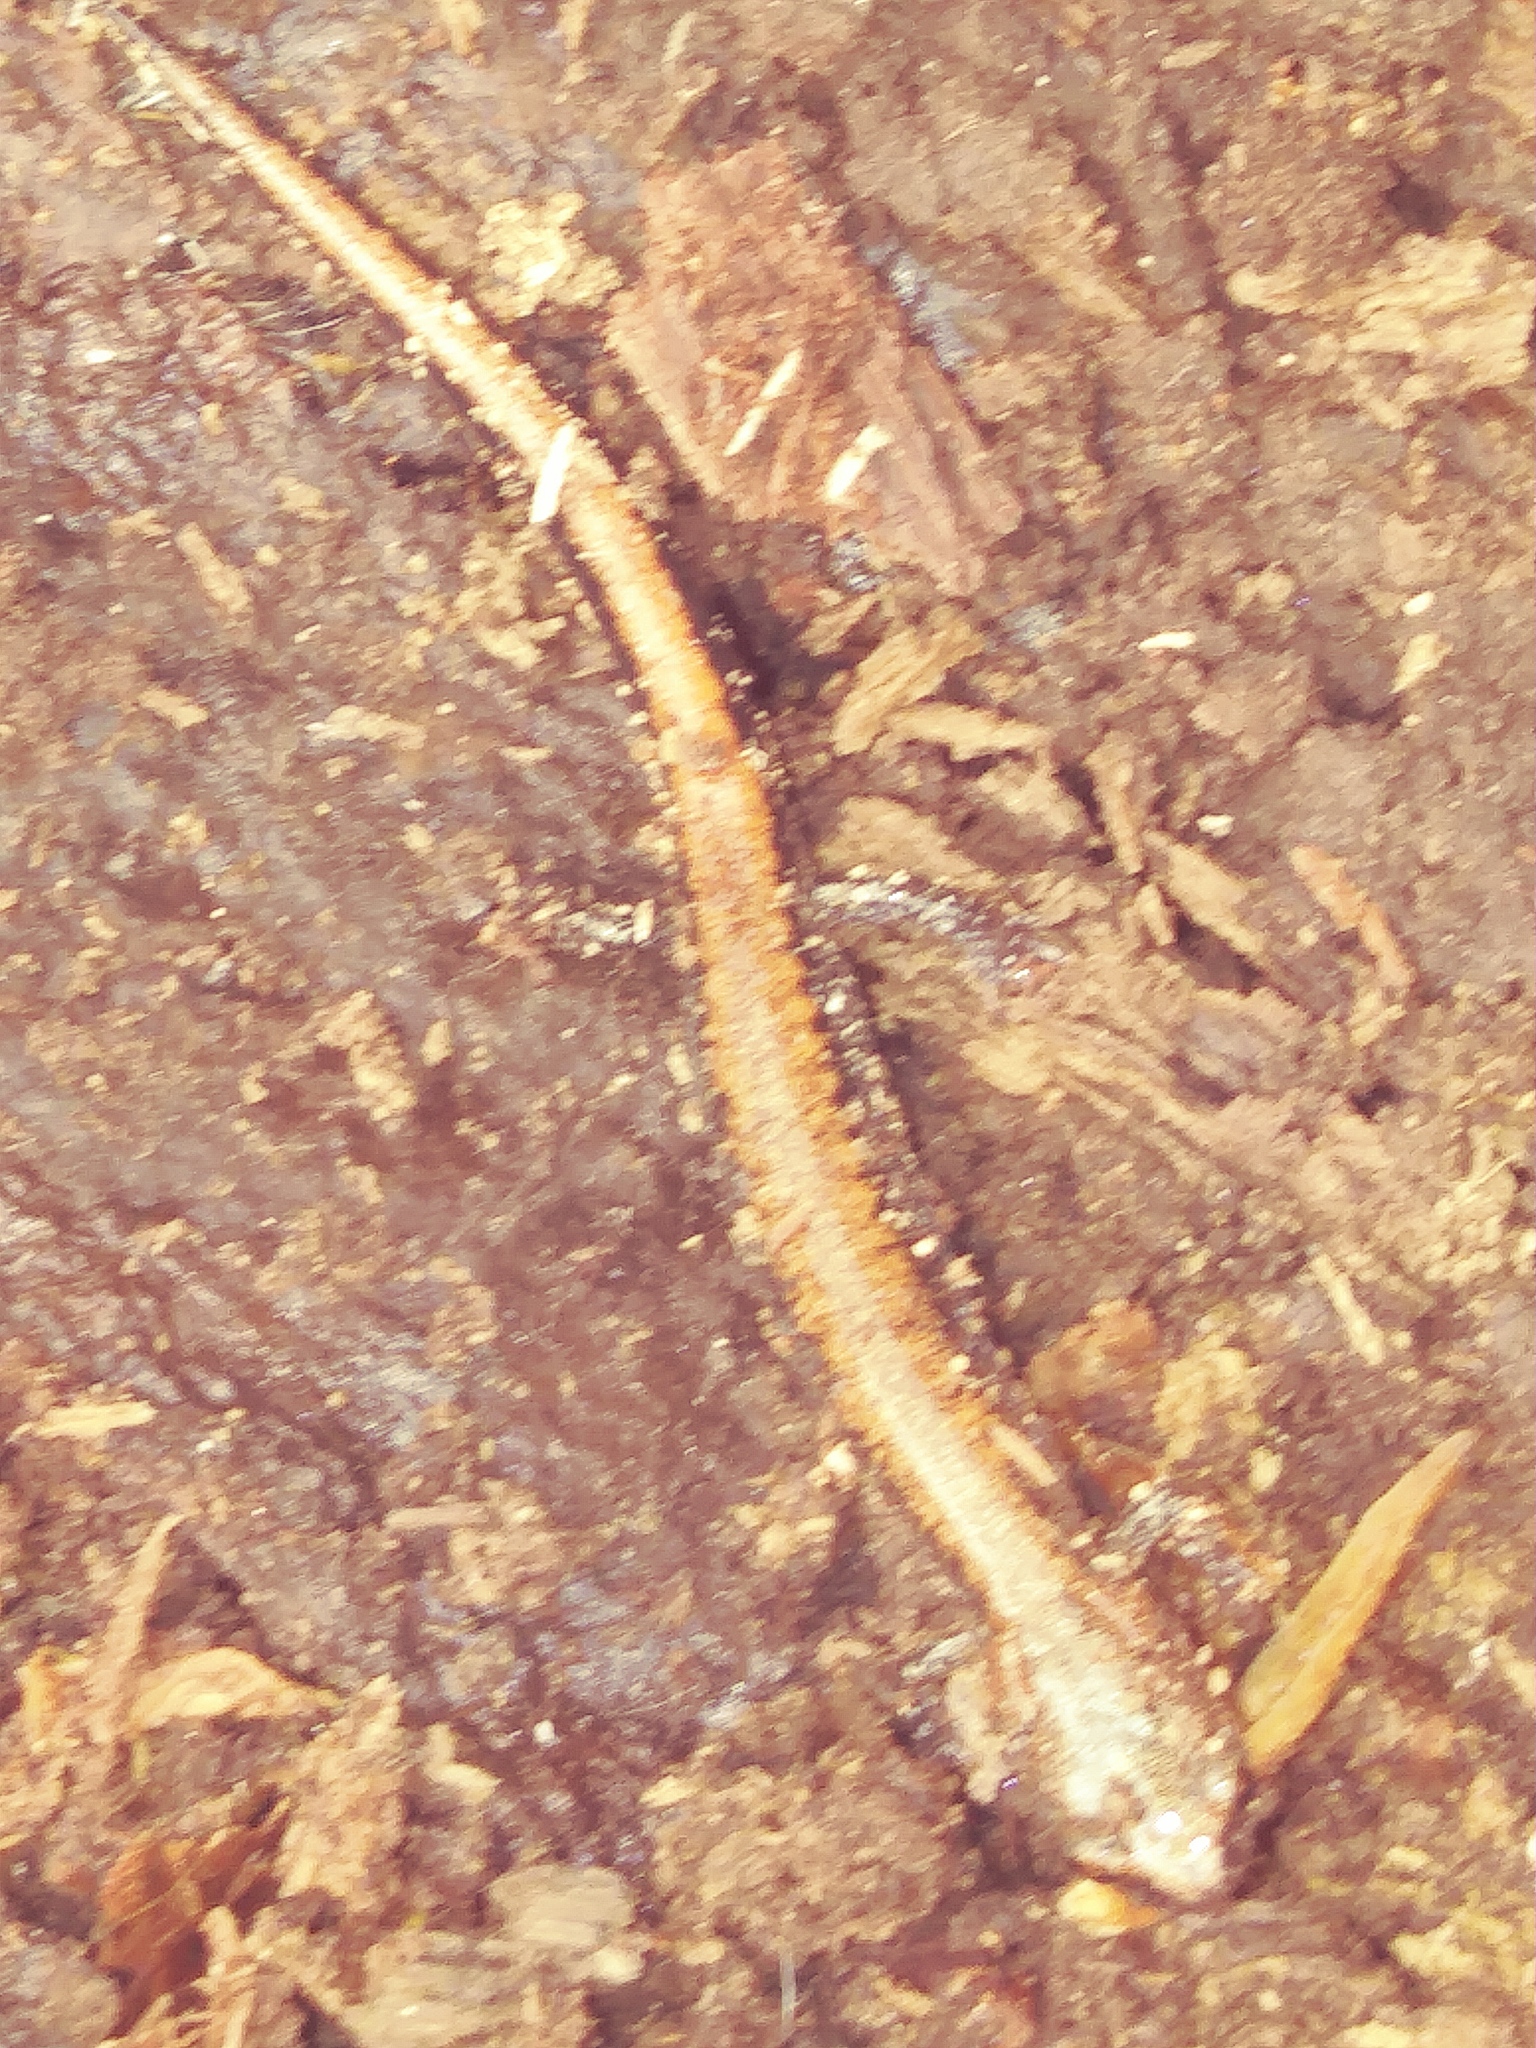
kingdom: Animalia
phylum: Chordata
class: Amphibia
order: Caudata
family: Plethodontidae
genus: Plethodon
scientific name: Plethodon cinereus
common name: Redback salamander
